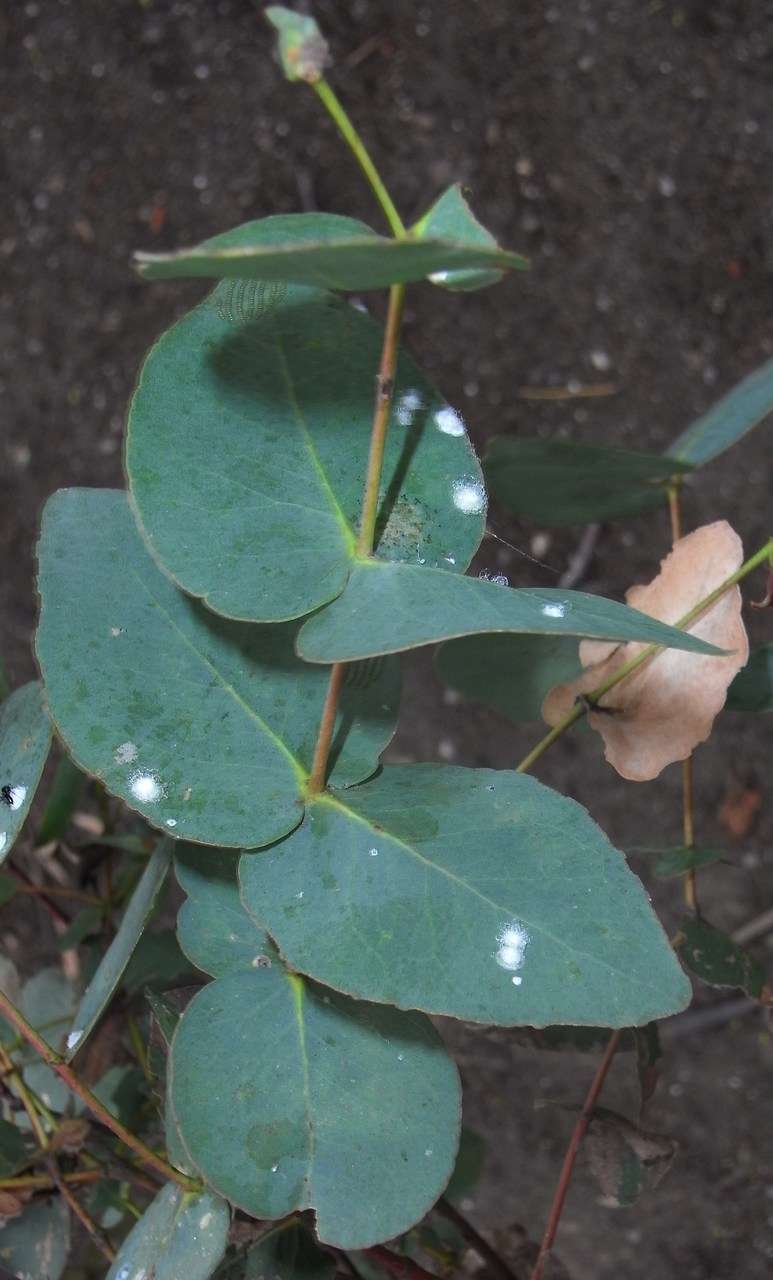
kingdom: Plantae
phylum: Tracheophyta
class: Magnoliopsida
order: Myrtales
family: Myrtaceae
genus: Eucalyptus
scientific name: Eucalyptus leucoxylon
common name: Blue gum
